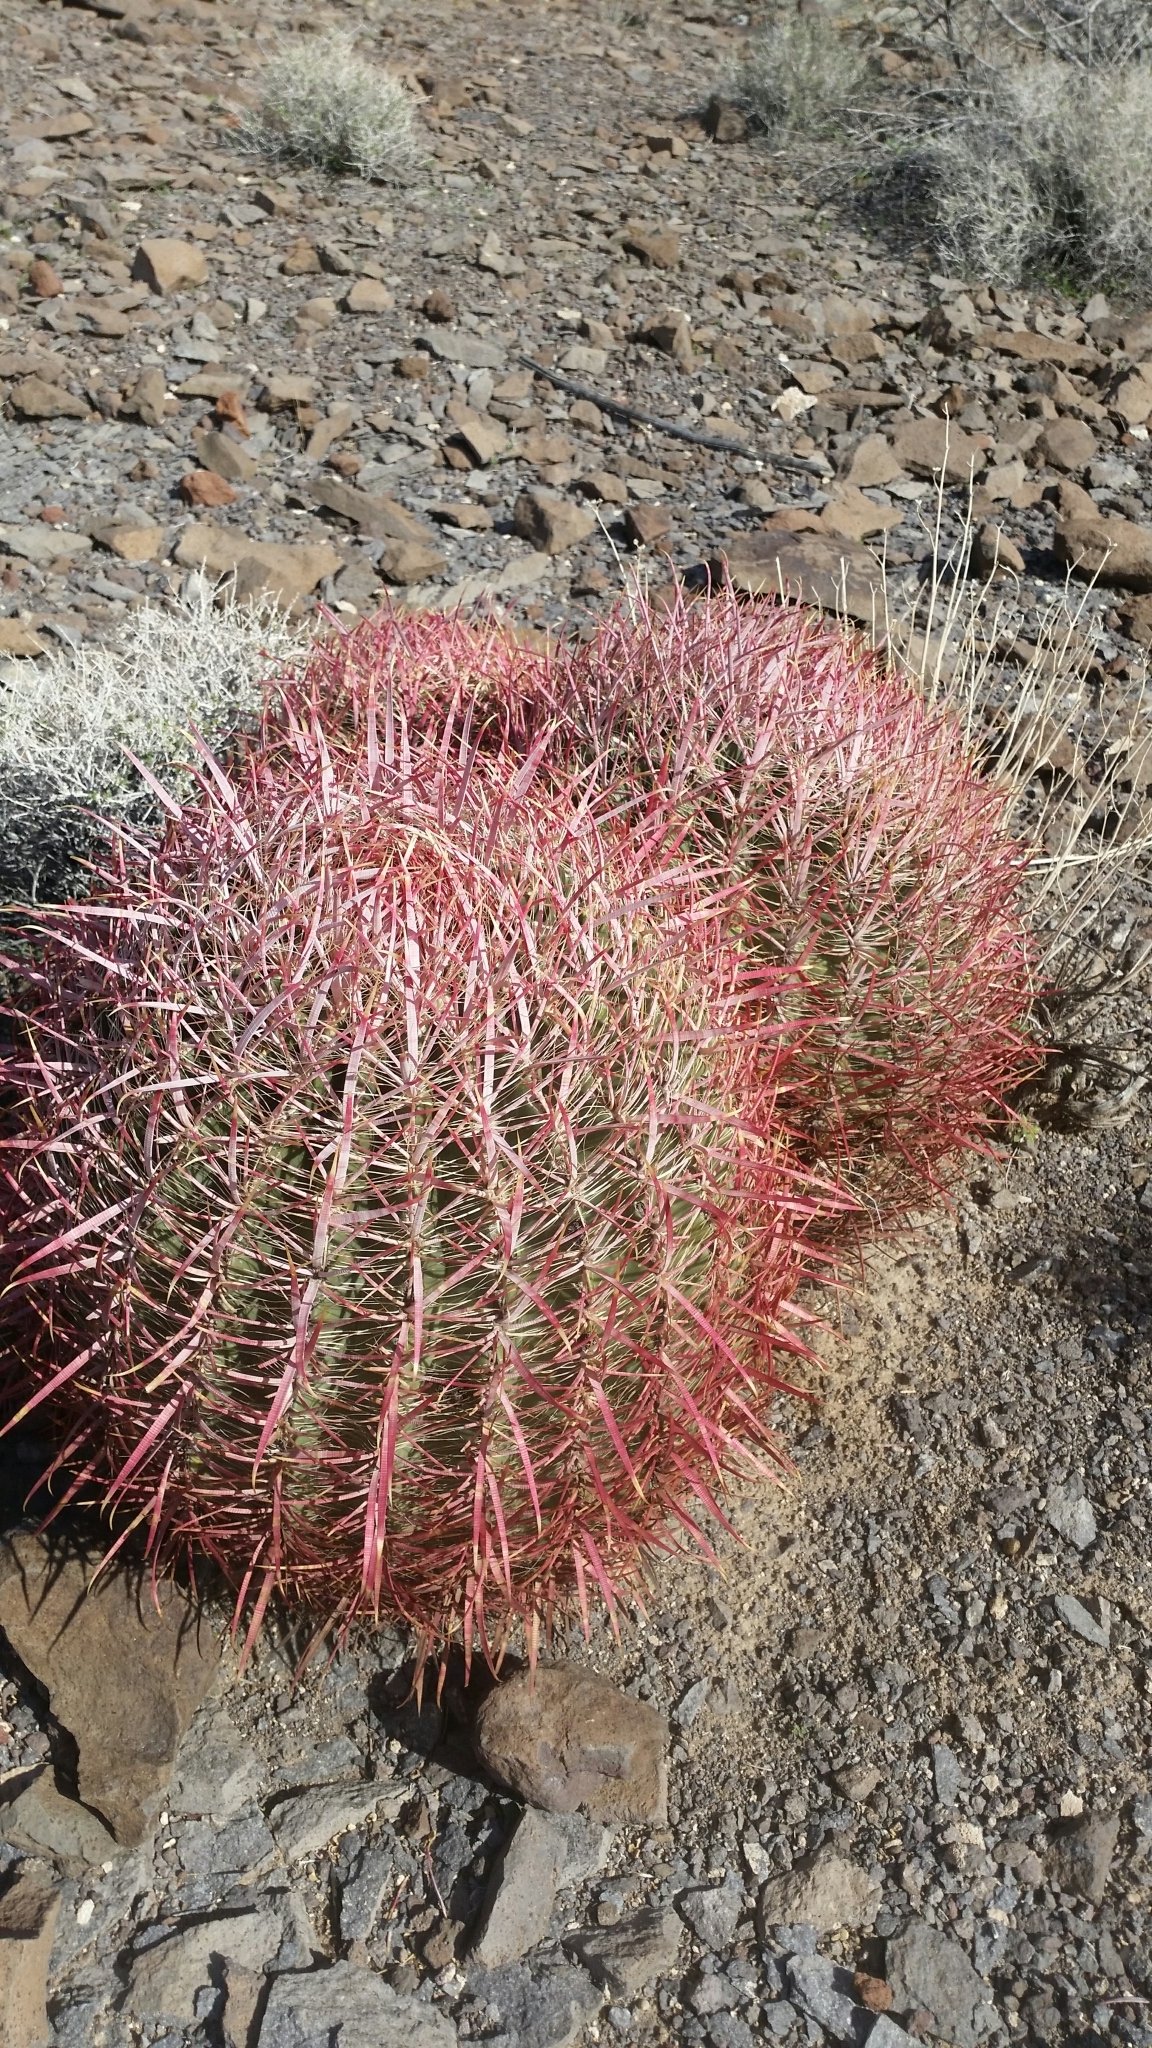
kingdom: Plantae
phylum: Tracheophyta
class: Magnoliopsida
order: Caryophyllales
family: Cactaceae
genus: Ferocactus
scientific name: Ferocactus cylindraceus
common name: California barrel cactus
